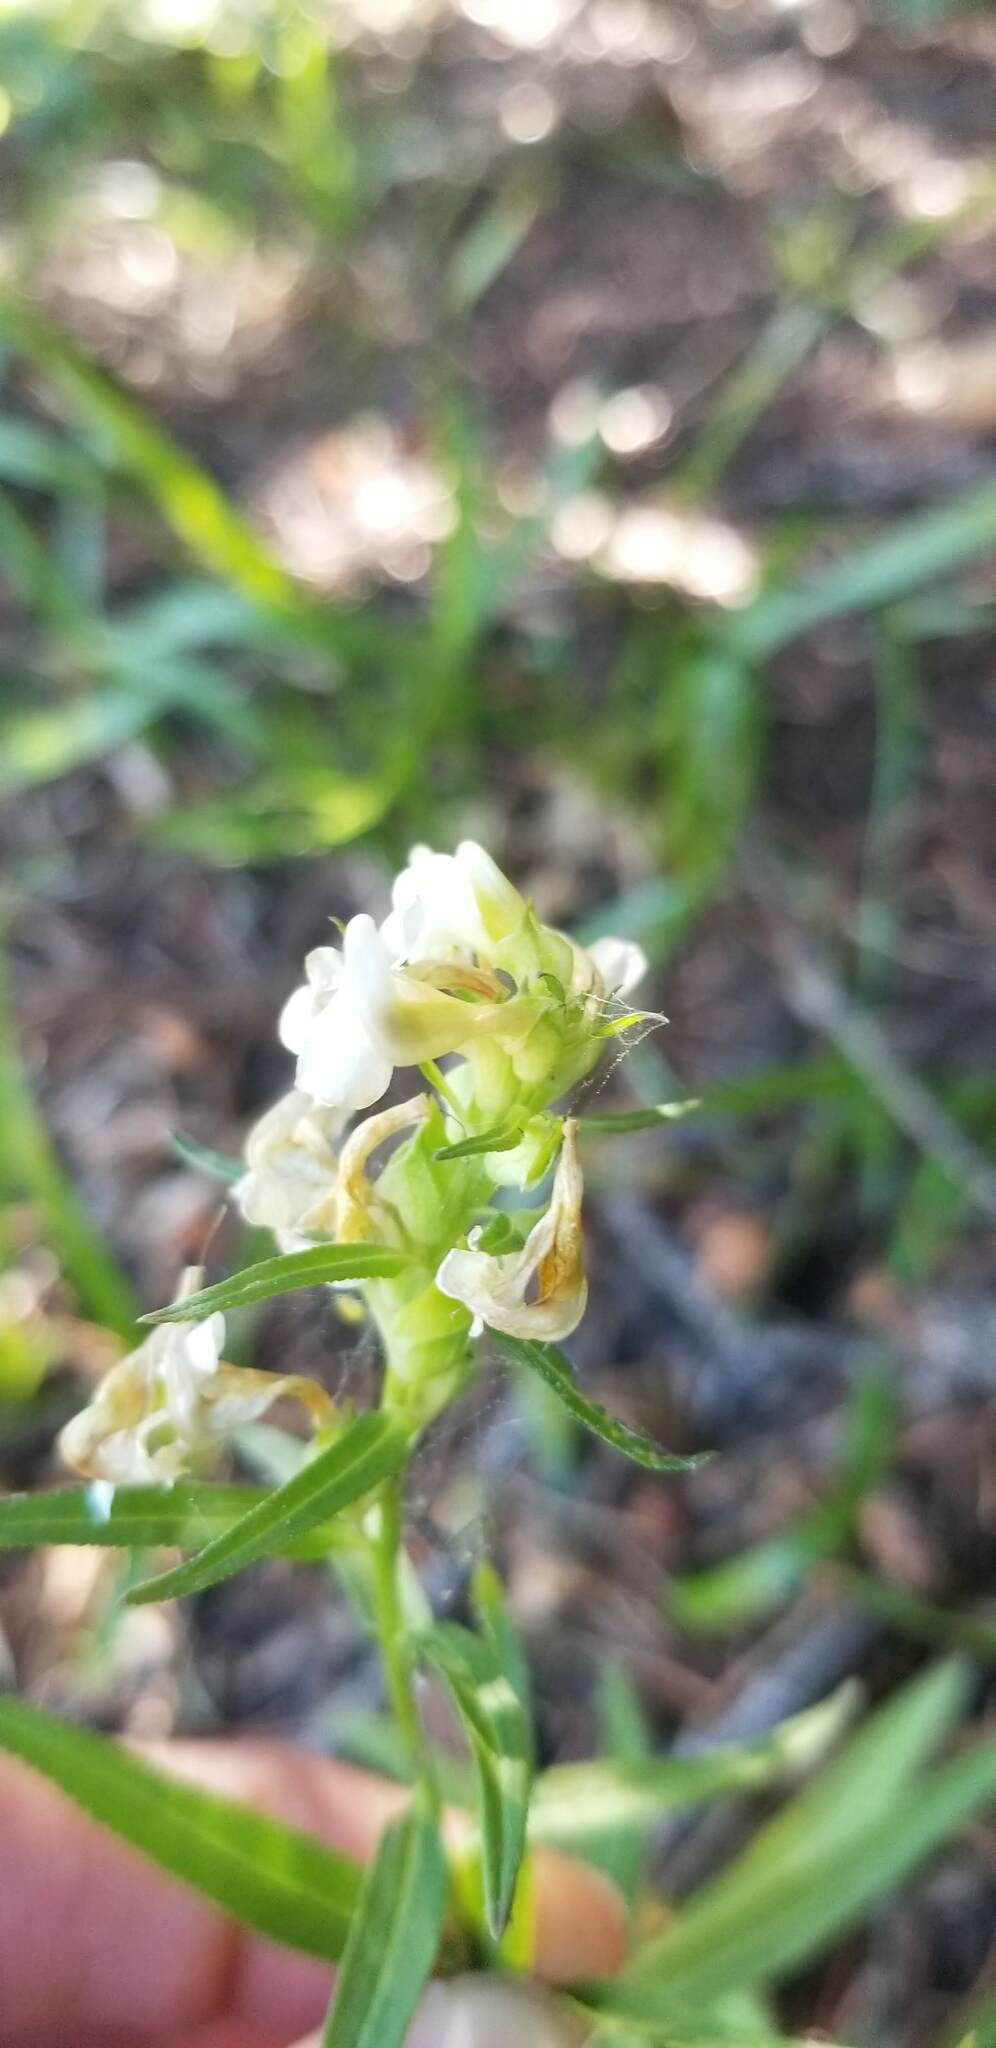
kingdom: Plantae
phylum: Tracheophyta
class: Magnoliopsida
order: Lamiales
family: Orobanchaceae
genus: Pedicularis
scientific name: Pedicularis racemosa
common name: Leafy lousewort
